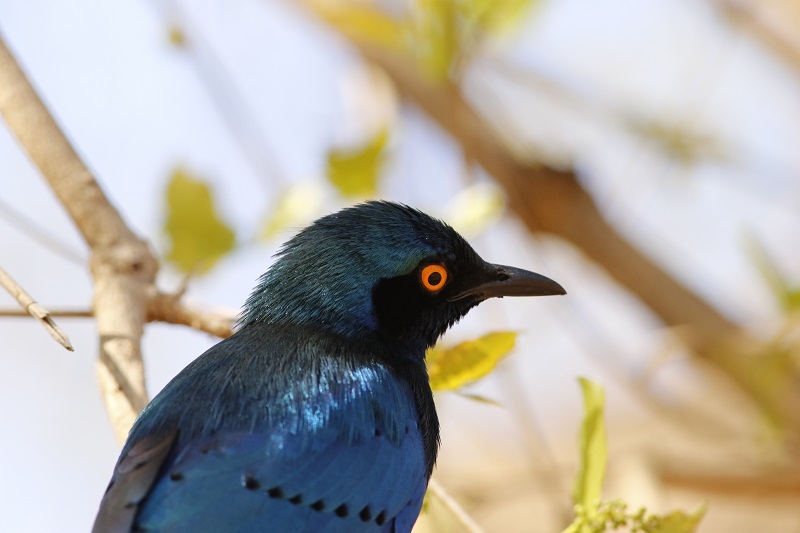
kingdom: Animalia
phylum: Chordata
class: Aves
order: Passeriformes
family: Sturnidae
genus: Lamprotornis
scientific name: Lamprotornis chalybaeus
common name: Greater blue-eared starling
